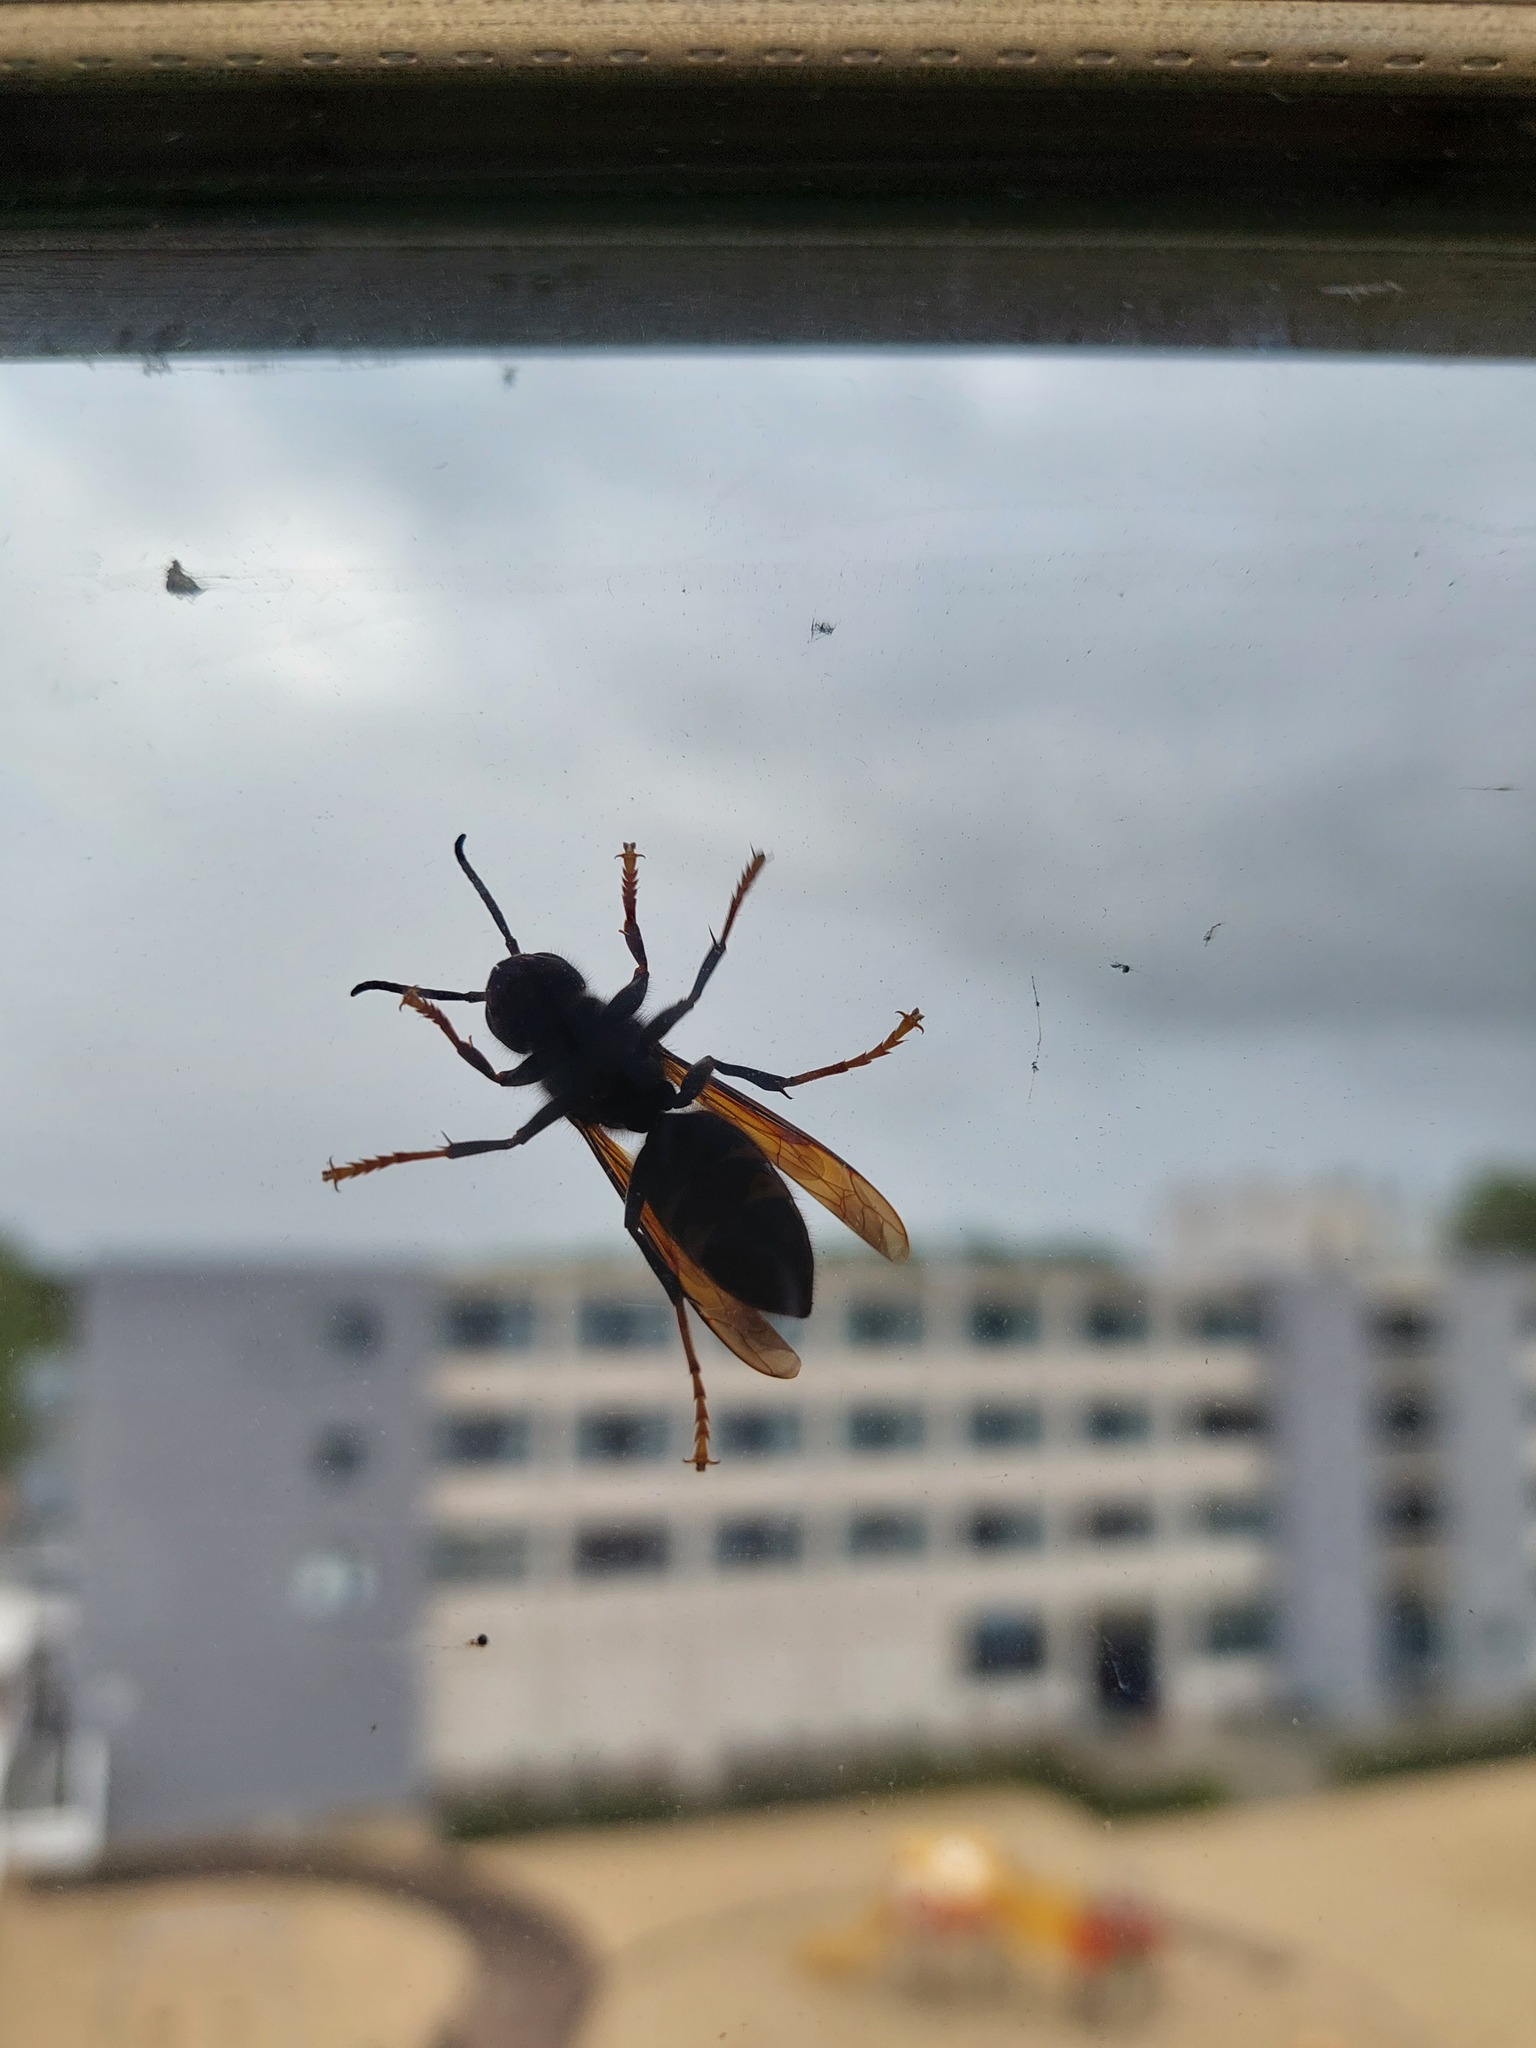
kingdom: Animalia
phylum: Arthropoda
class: Insecta
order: Hymenoptera
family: Vespidae
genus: Vespa
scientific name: Vespa velutina
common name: Asian hornet
